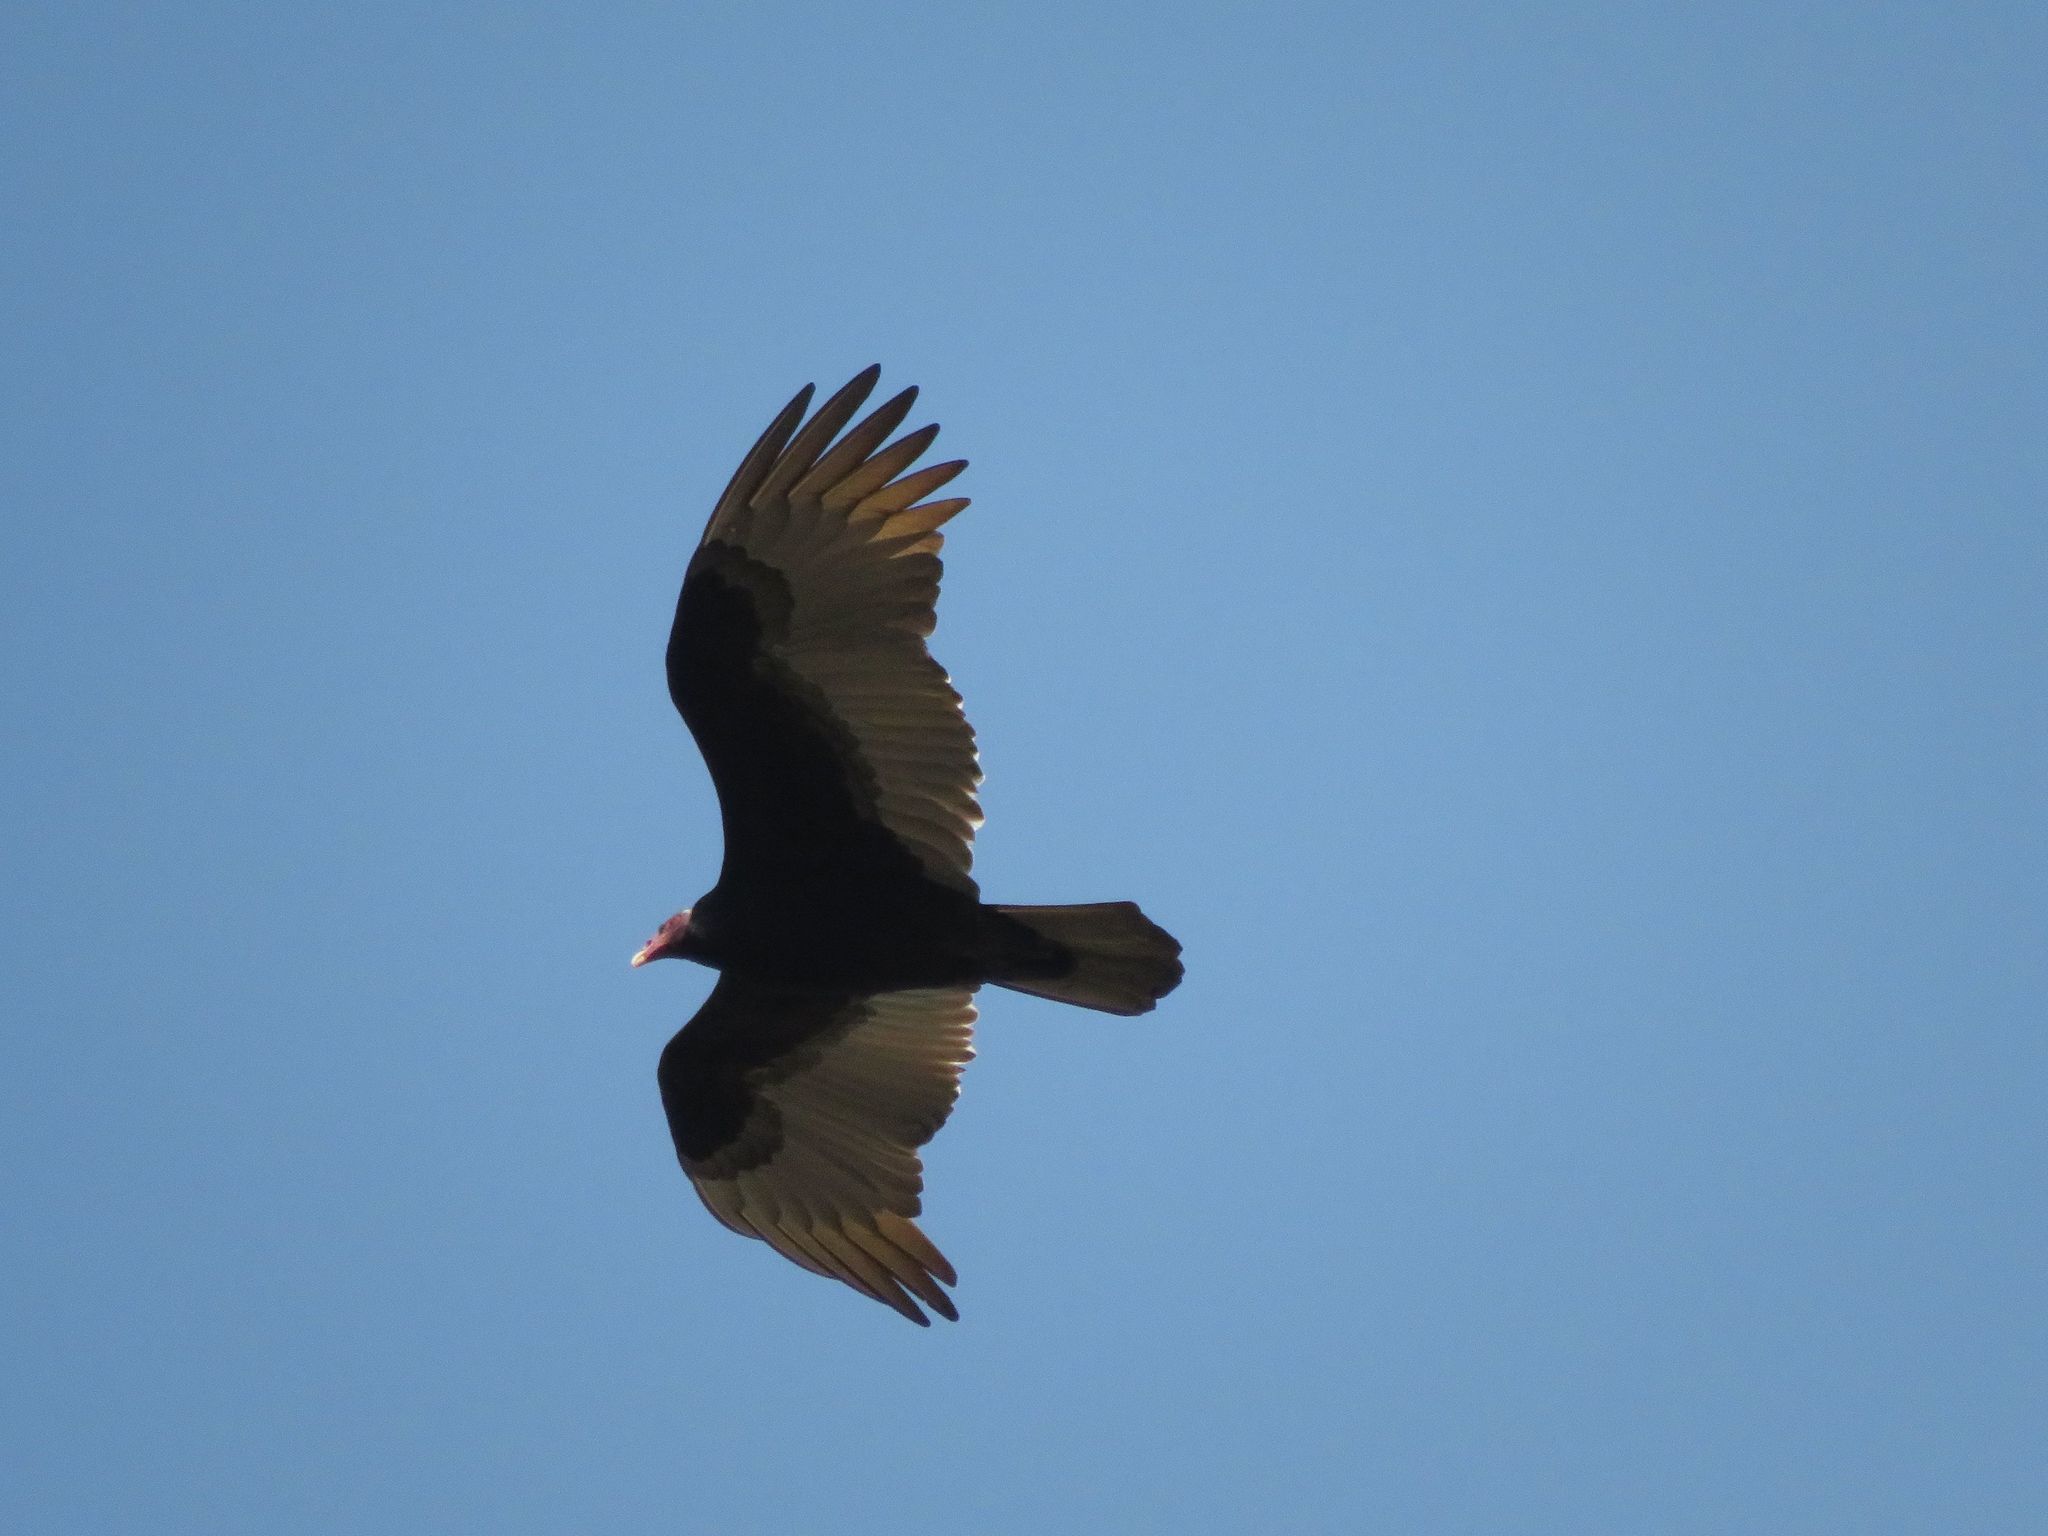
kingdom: Animalia
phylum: Chordata
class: Aves
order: Accipitriformes
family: Cathartidae
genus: Cathartes
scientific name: Cathartes aura
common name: Turkey vulture
